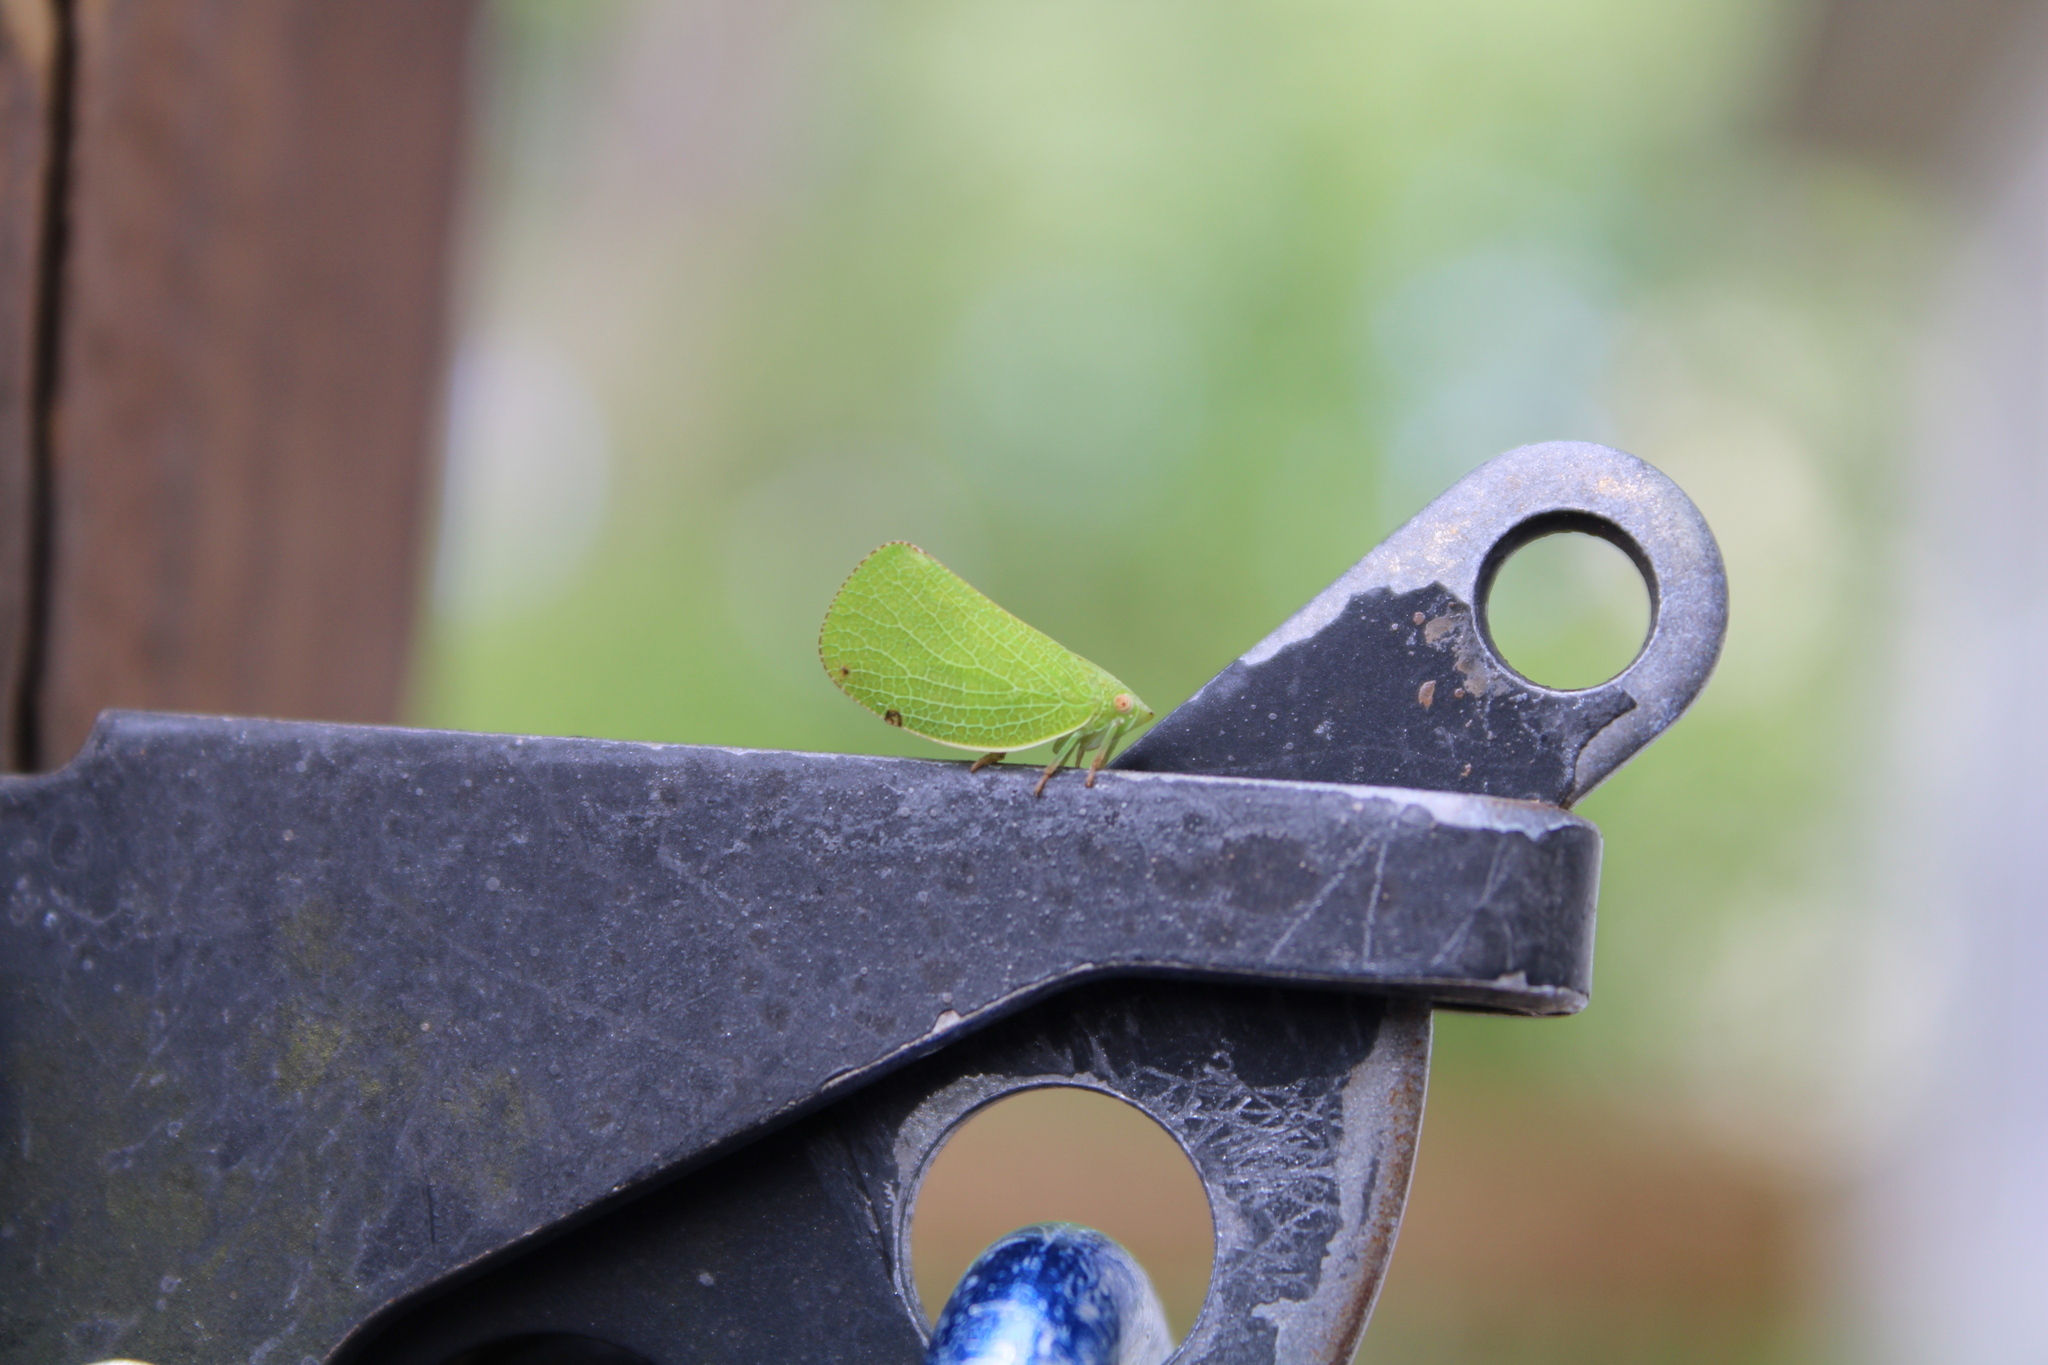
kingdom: Animalia
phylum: Arthropoda
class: Insecta
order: Hemiptera
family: Acanaloniidae
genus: Acanalonia
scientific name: Acanalonia conica
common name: Green cone-headed planthopper
